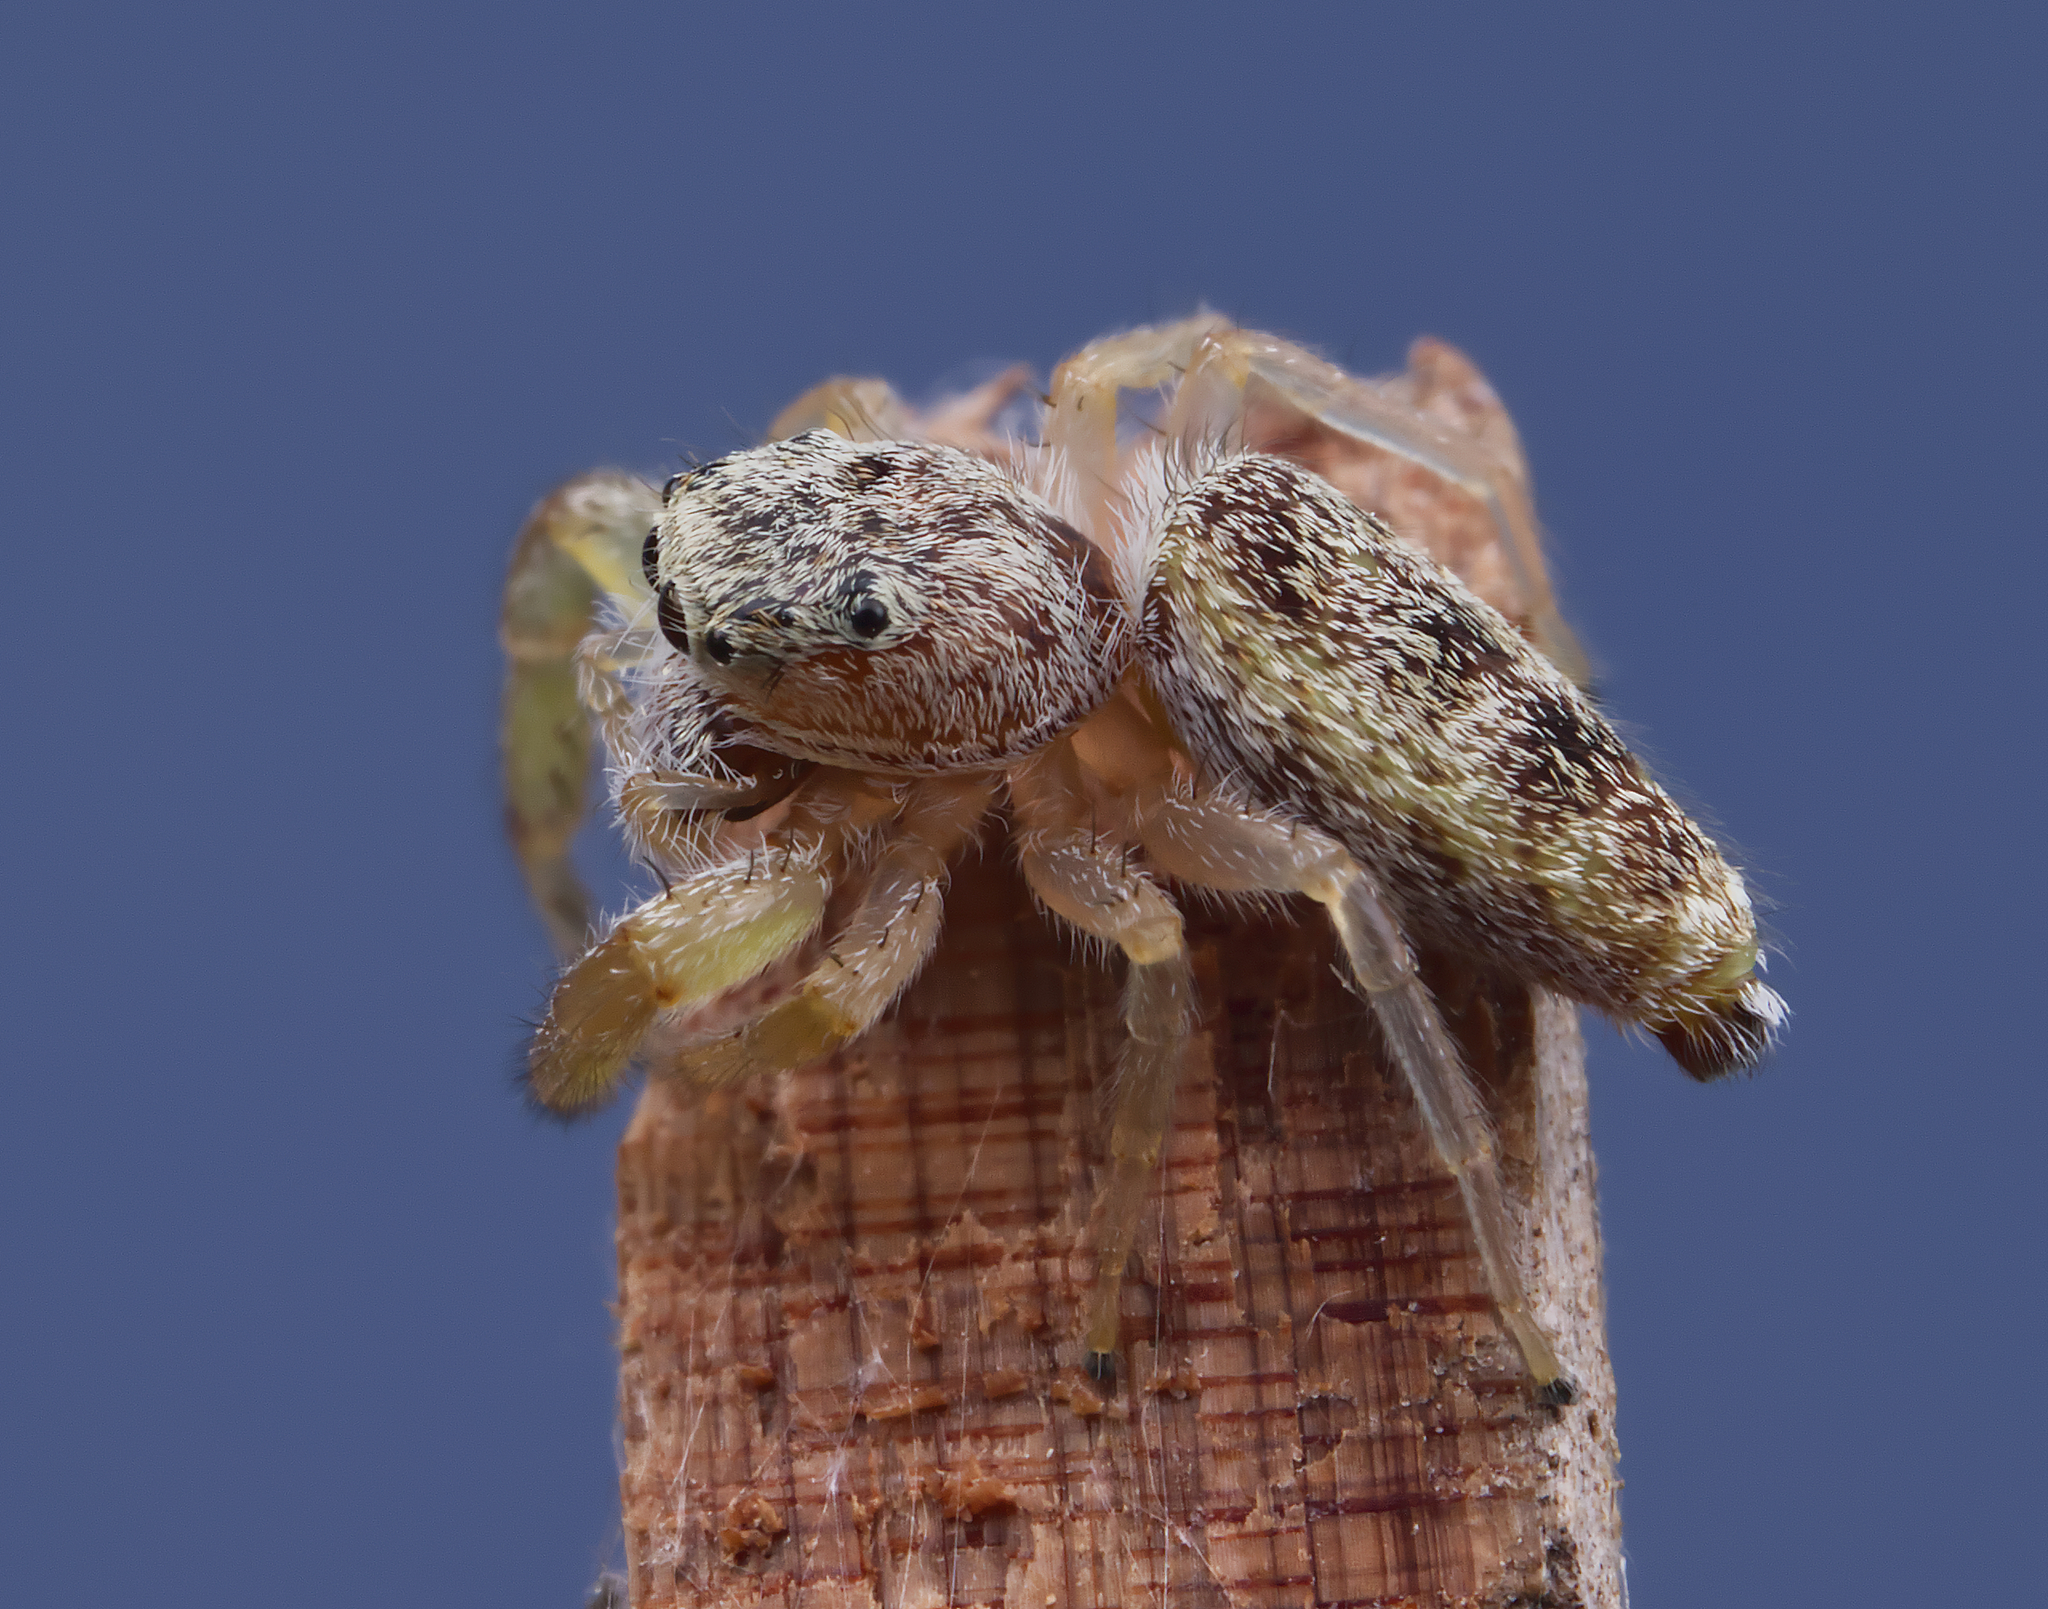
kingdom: Animalia
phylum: Arthropoda
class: Arachnida
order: Araneae
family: Salticidae
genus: Hentzia
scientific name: Hentzia mitrata
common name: White-jawed jumping spider
